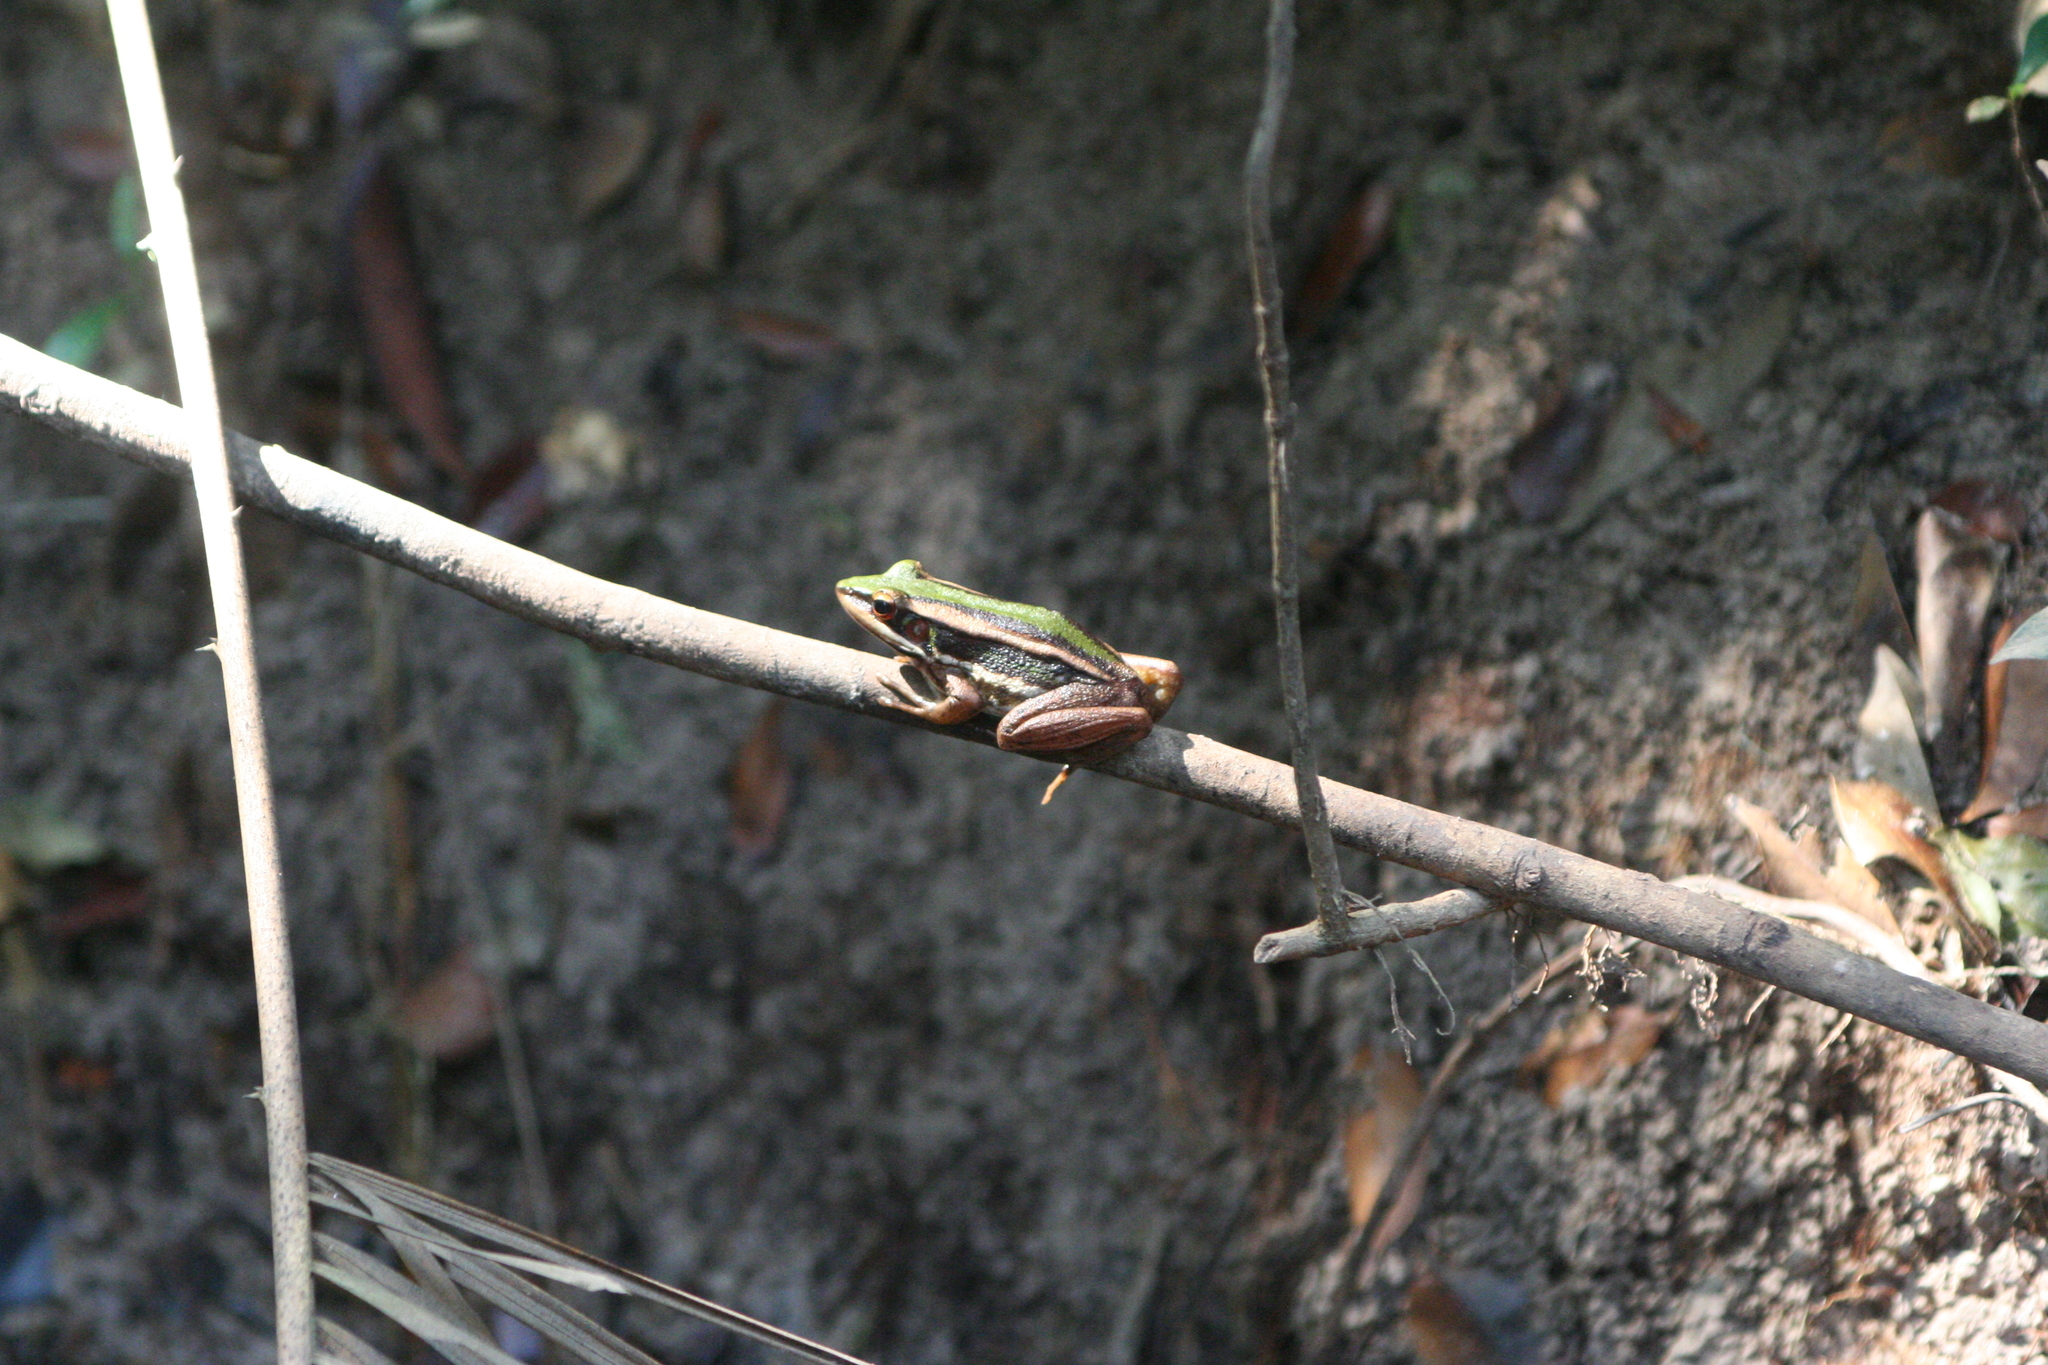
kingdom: Animalia
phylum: Chordata
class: Amphibia
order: Anura
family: Ranidae
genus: Hylarana
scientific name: Hylarana erythraea
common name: Common green frog/green paddy frog/leaf frog
